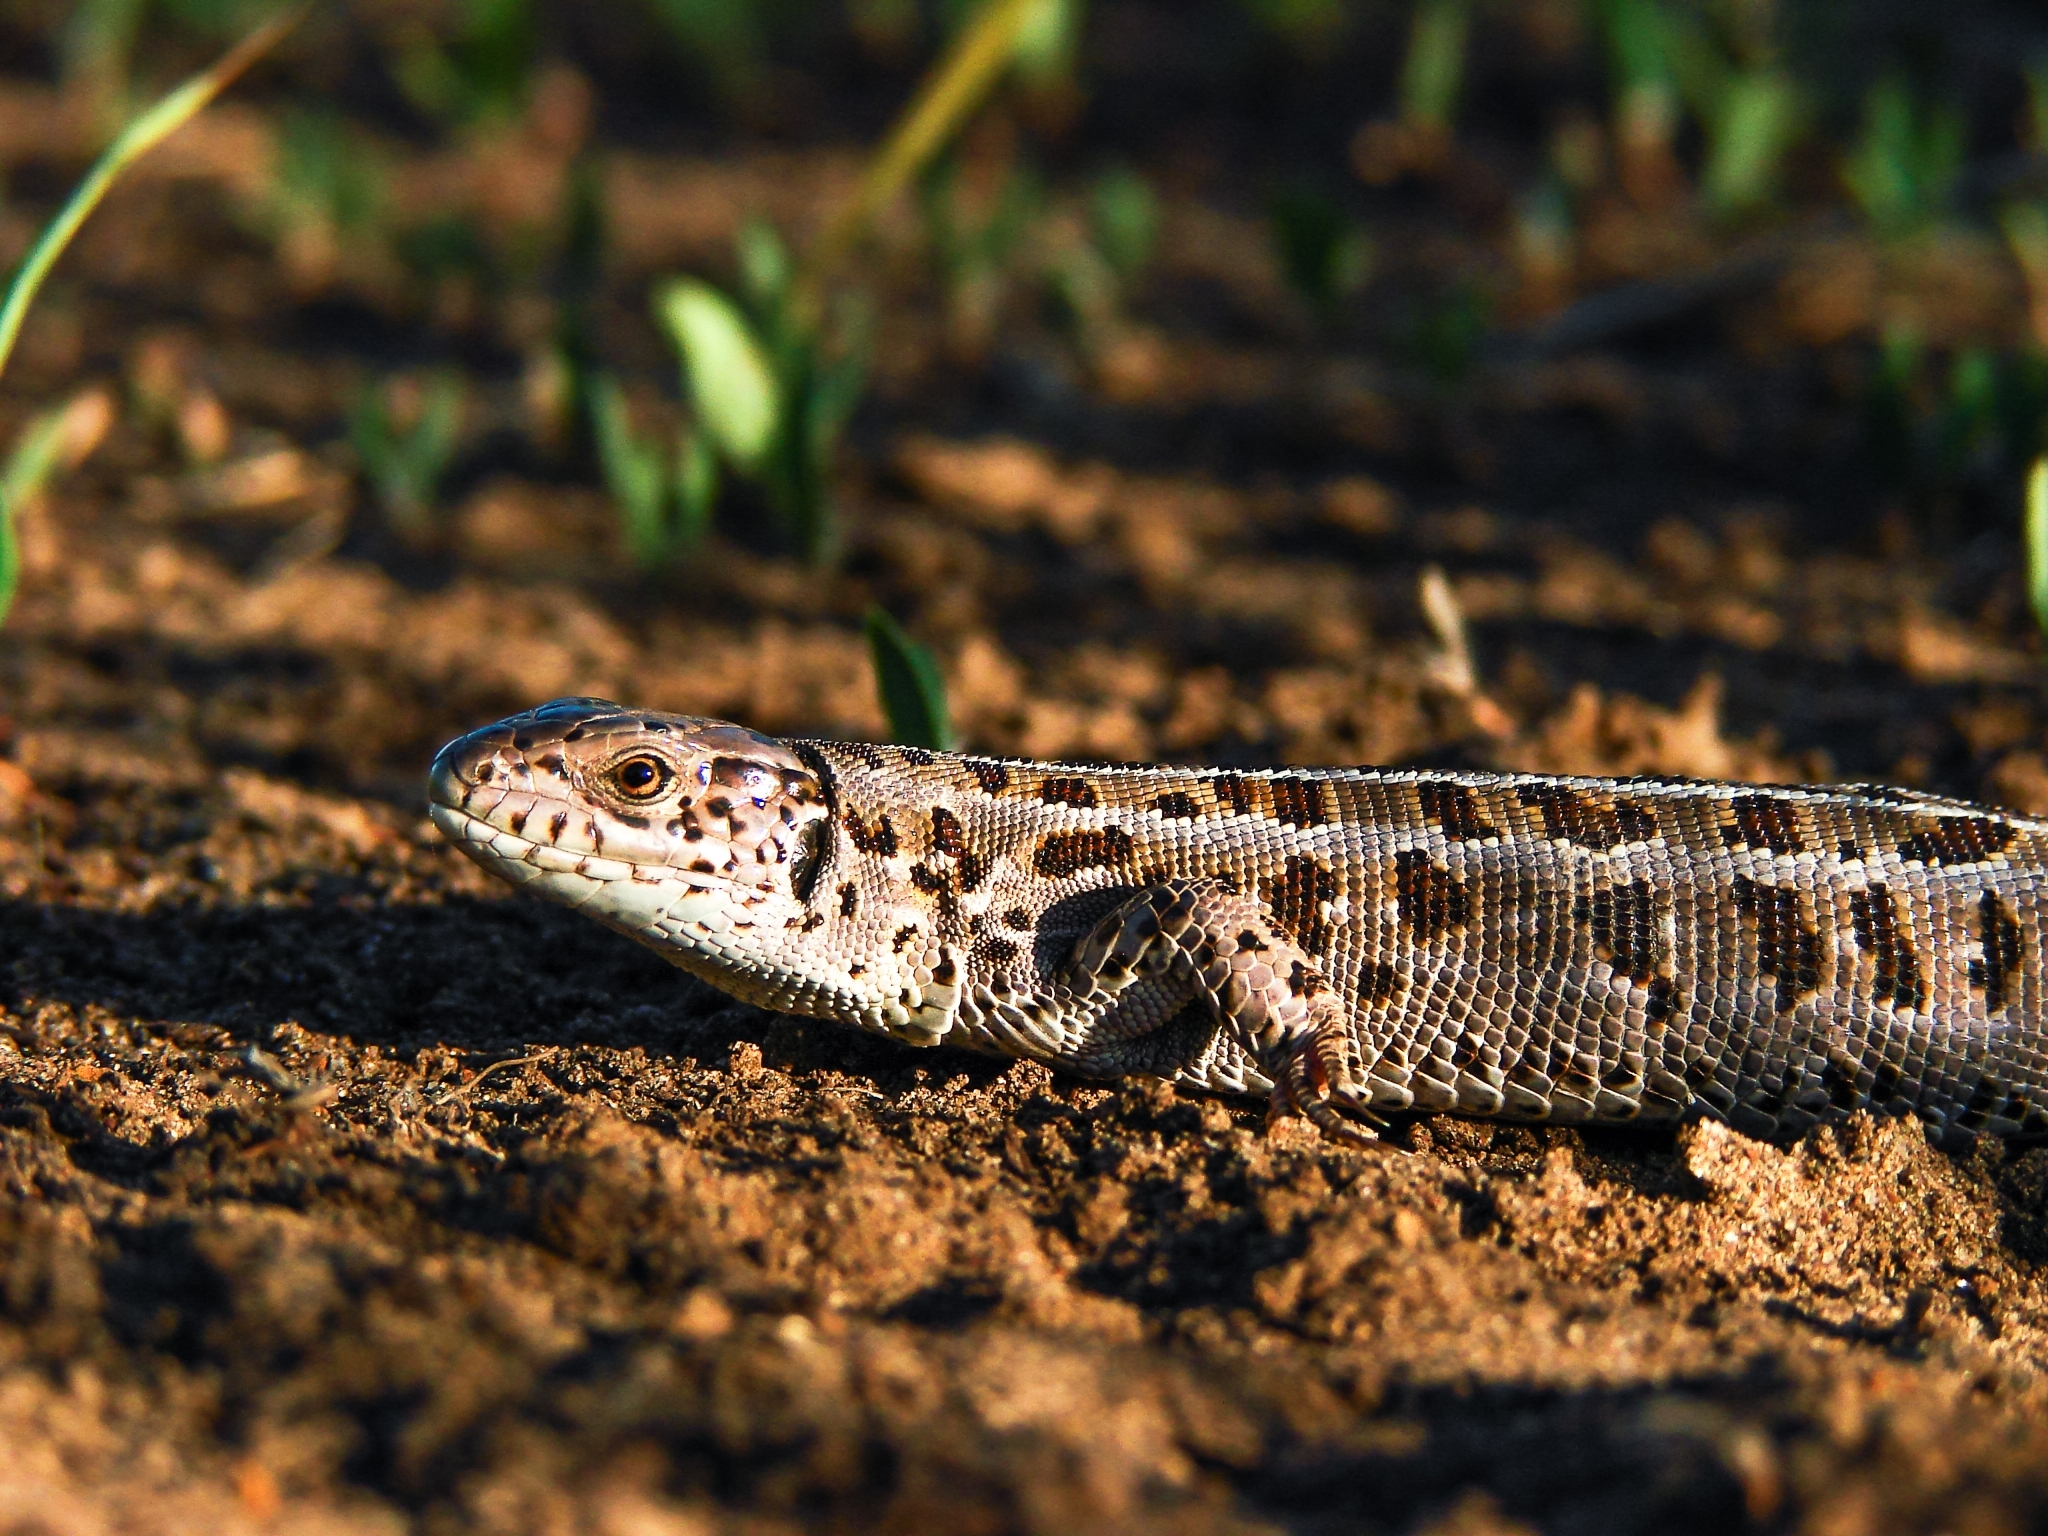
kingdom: Animalia
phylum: Chordata
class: Squamata
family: Lacertidae
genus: Lacerta
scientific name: Lacerta agilis
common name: Sand lizard
